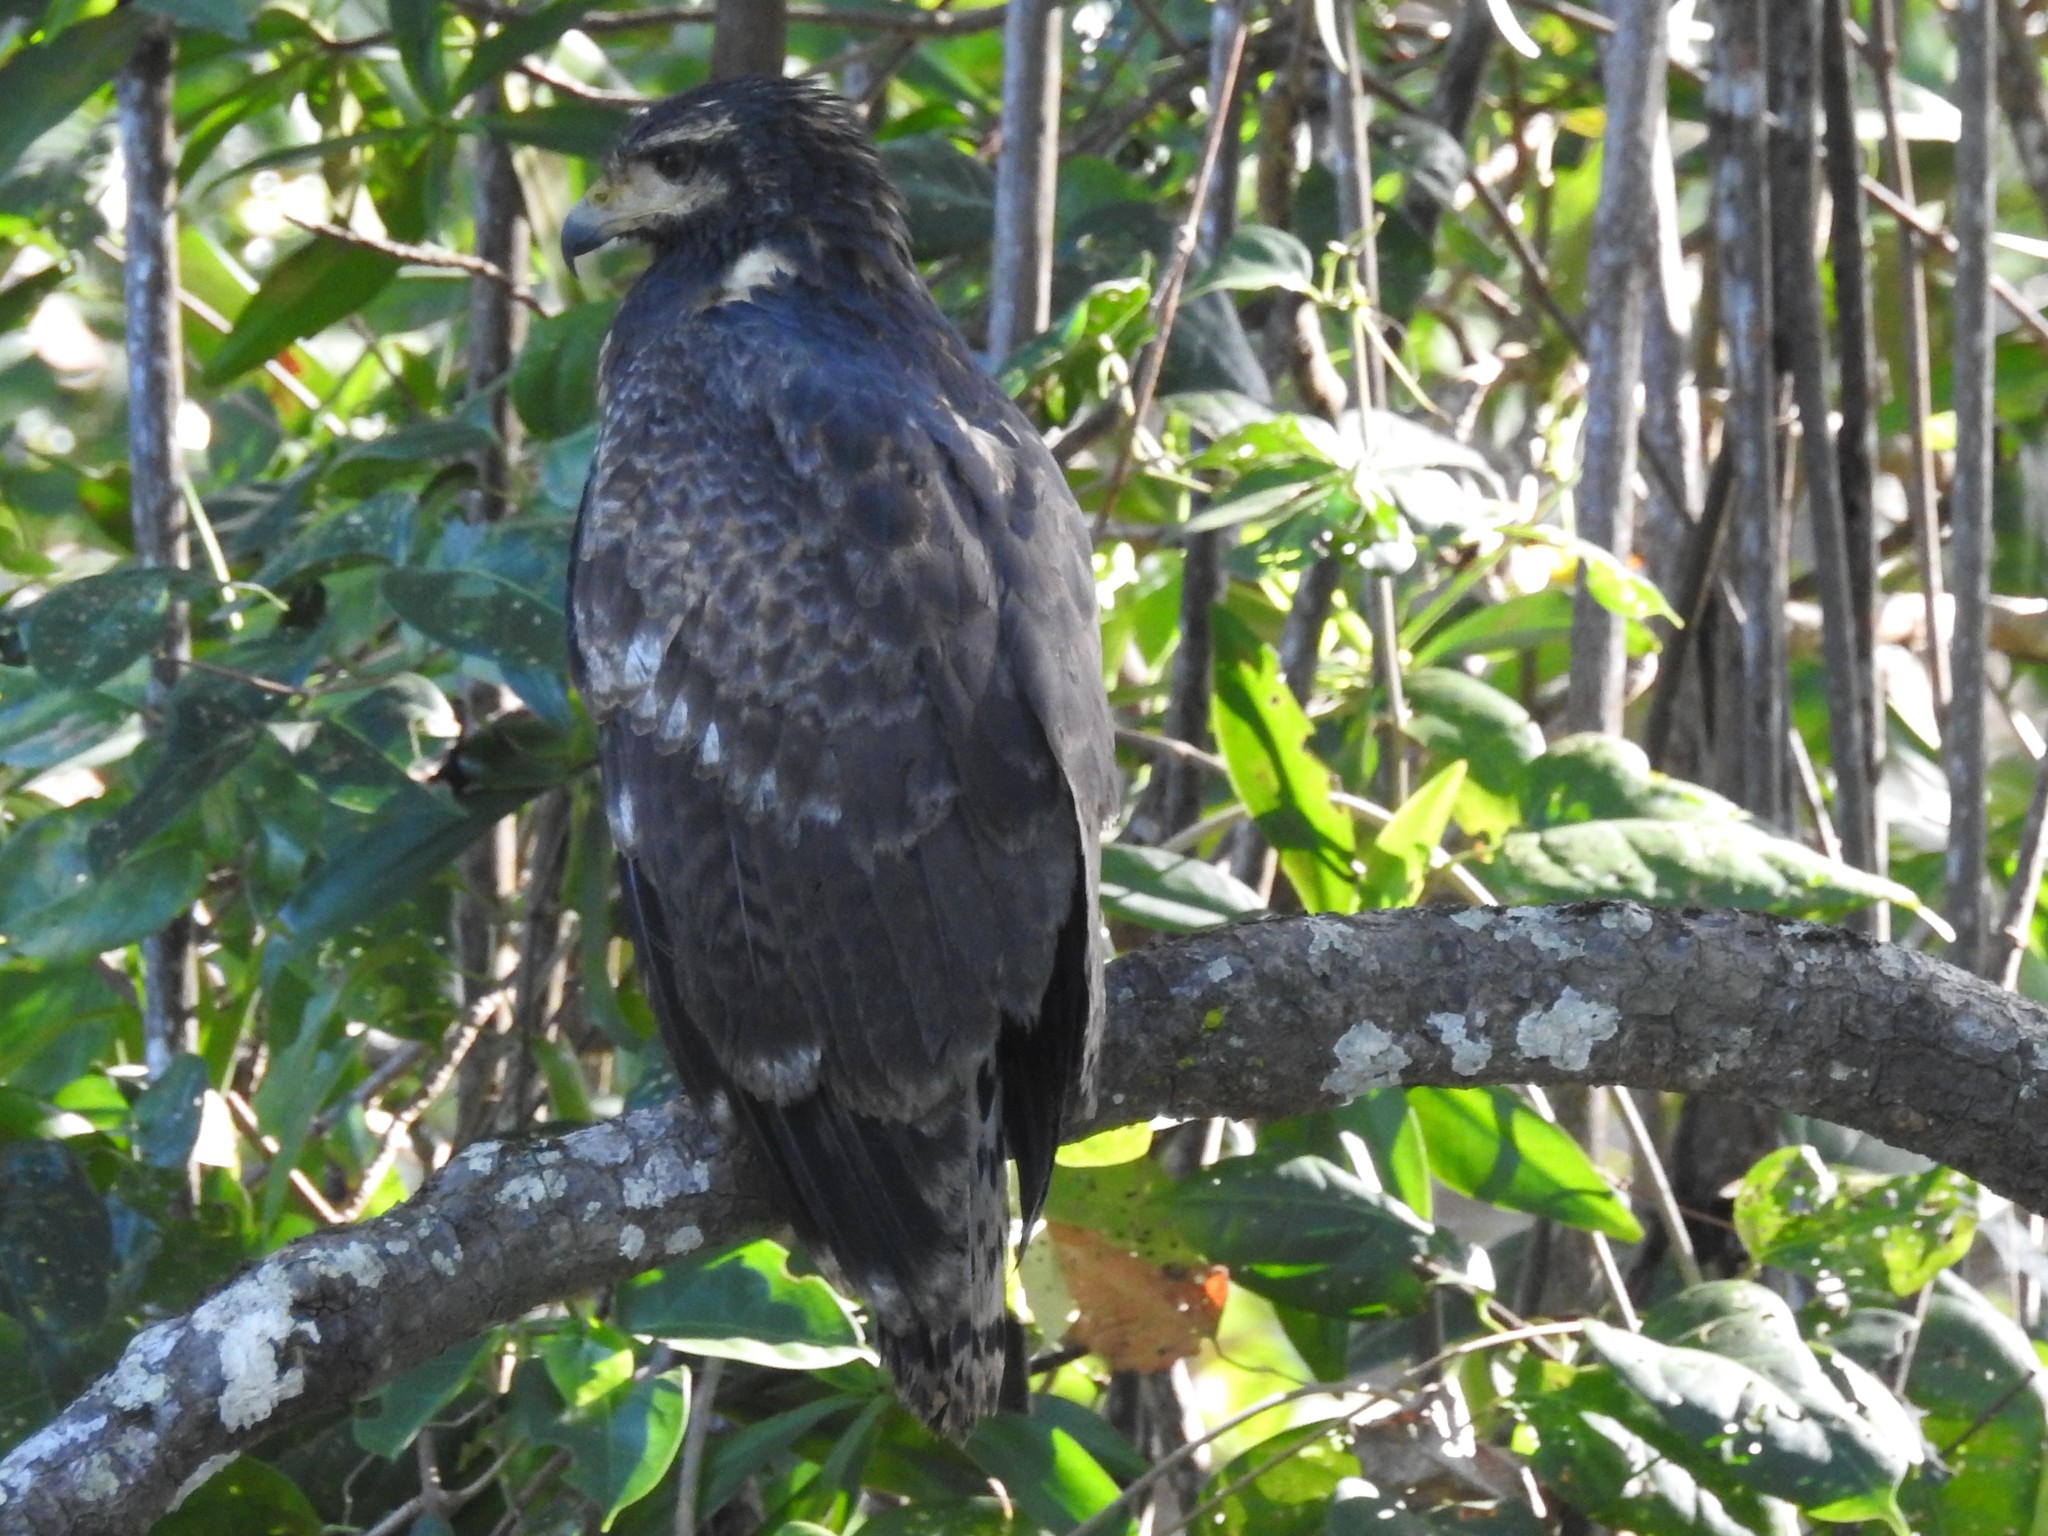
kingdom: Animalia
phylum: Chordata
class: Aves
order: Accipitriformes
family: Accipitridae
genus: Buteogallus
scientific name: Buteogallus anthracinus
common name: Common black hawk
